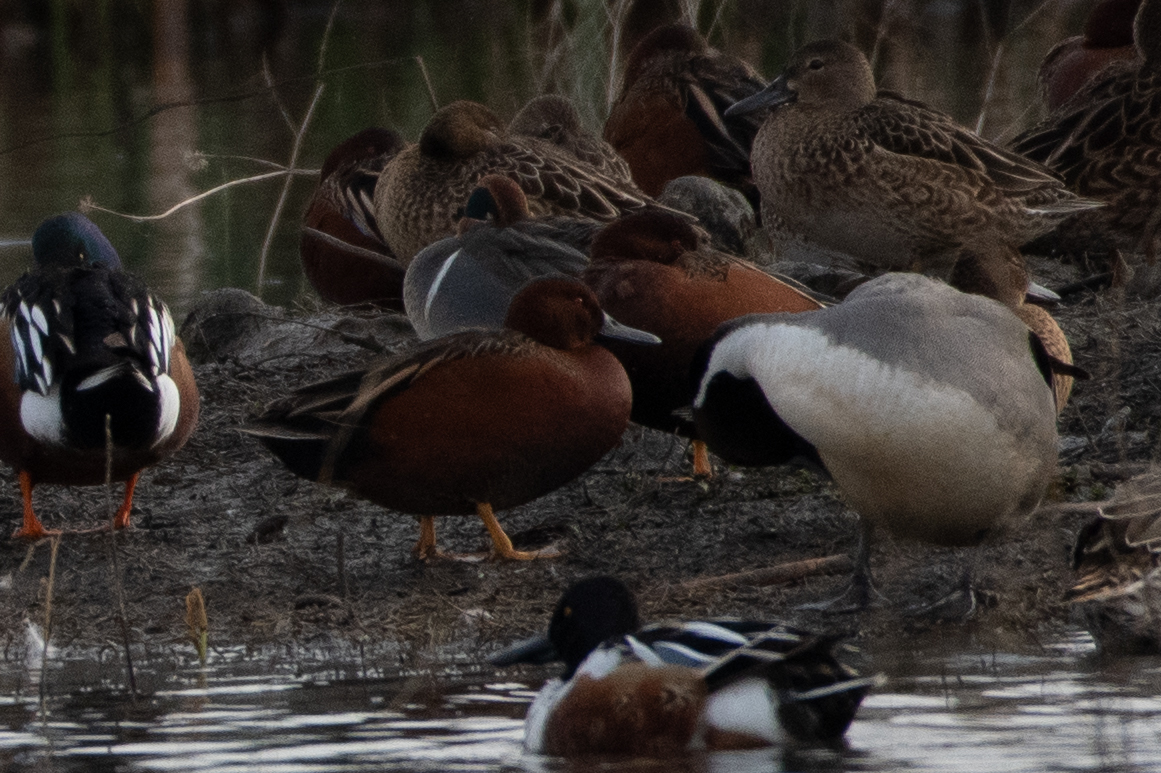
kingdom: Animalia
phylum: Chordata
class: Aves
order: Anseriformes
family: Anatidae
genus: Spatula
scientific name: Spatula cyanoptera
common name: Cinnamon teal
